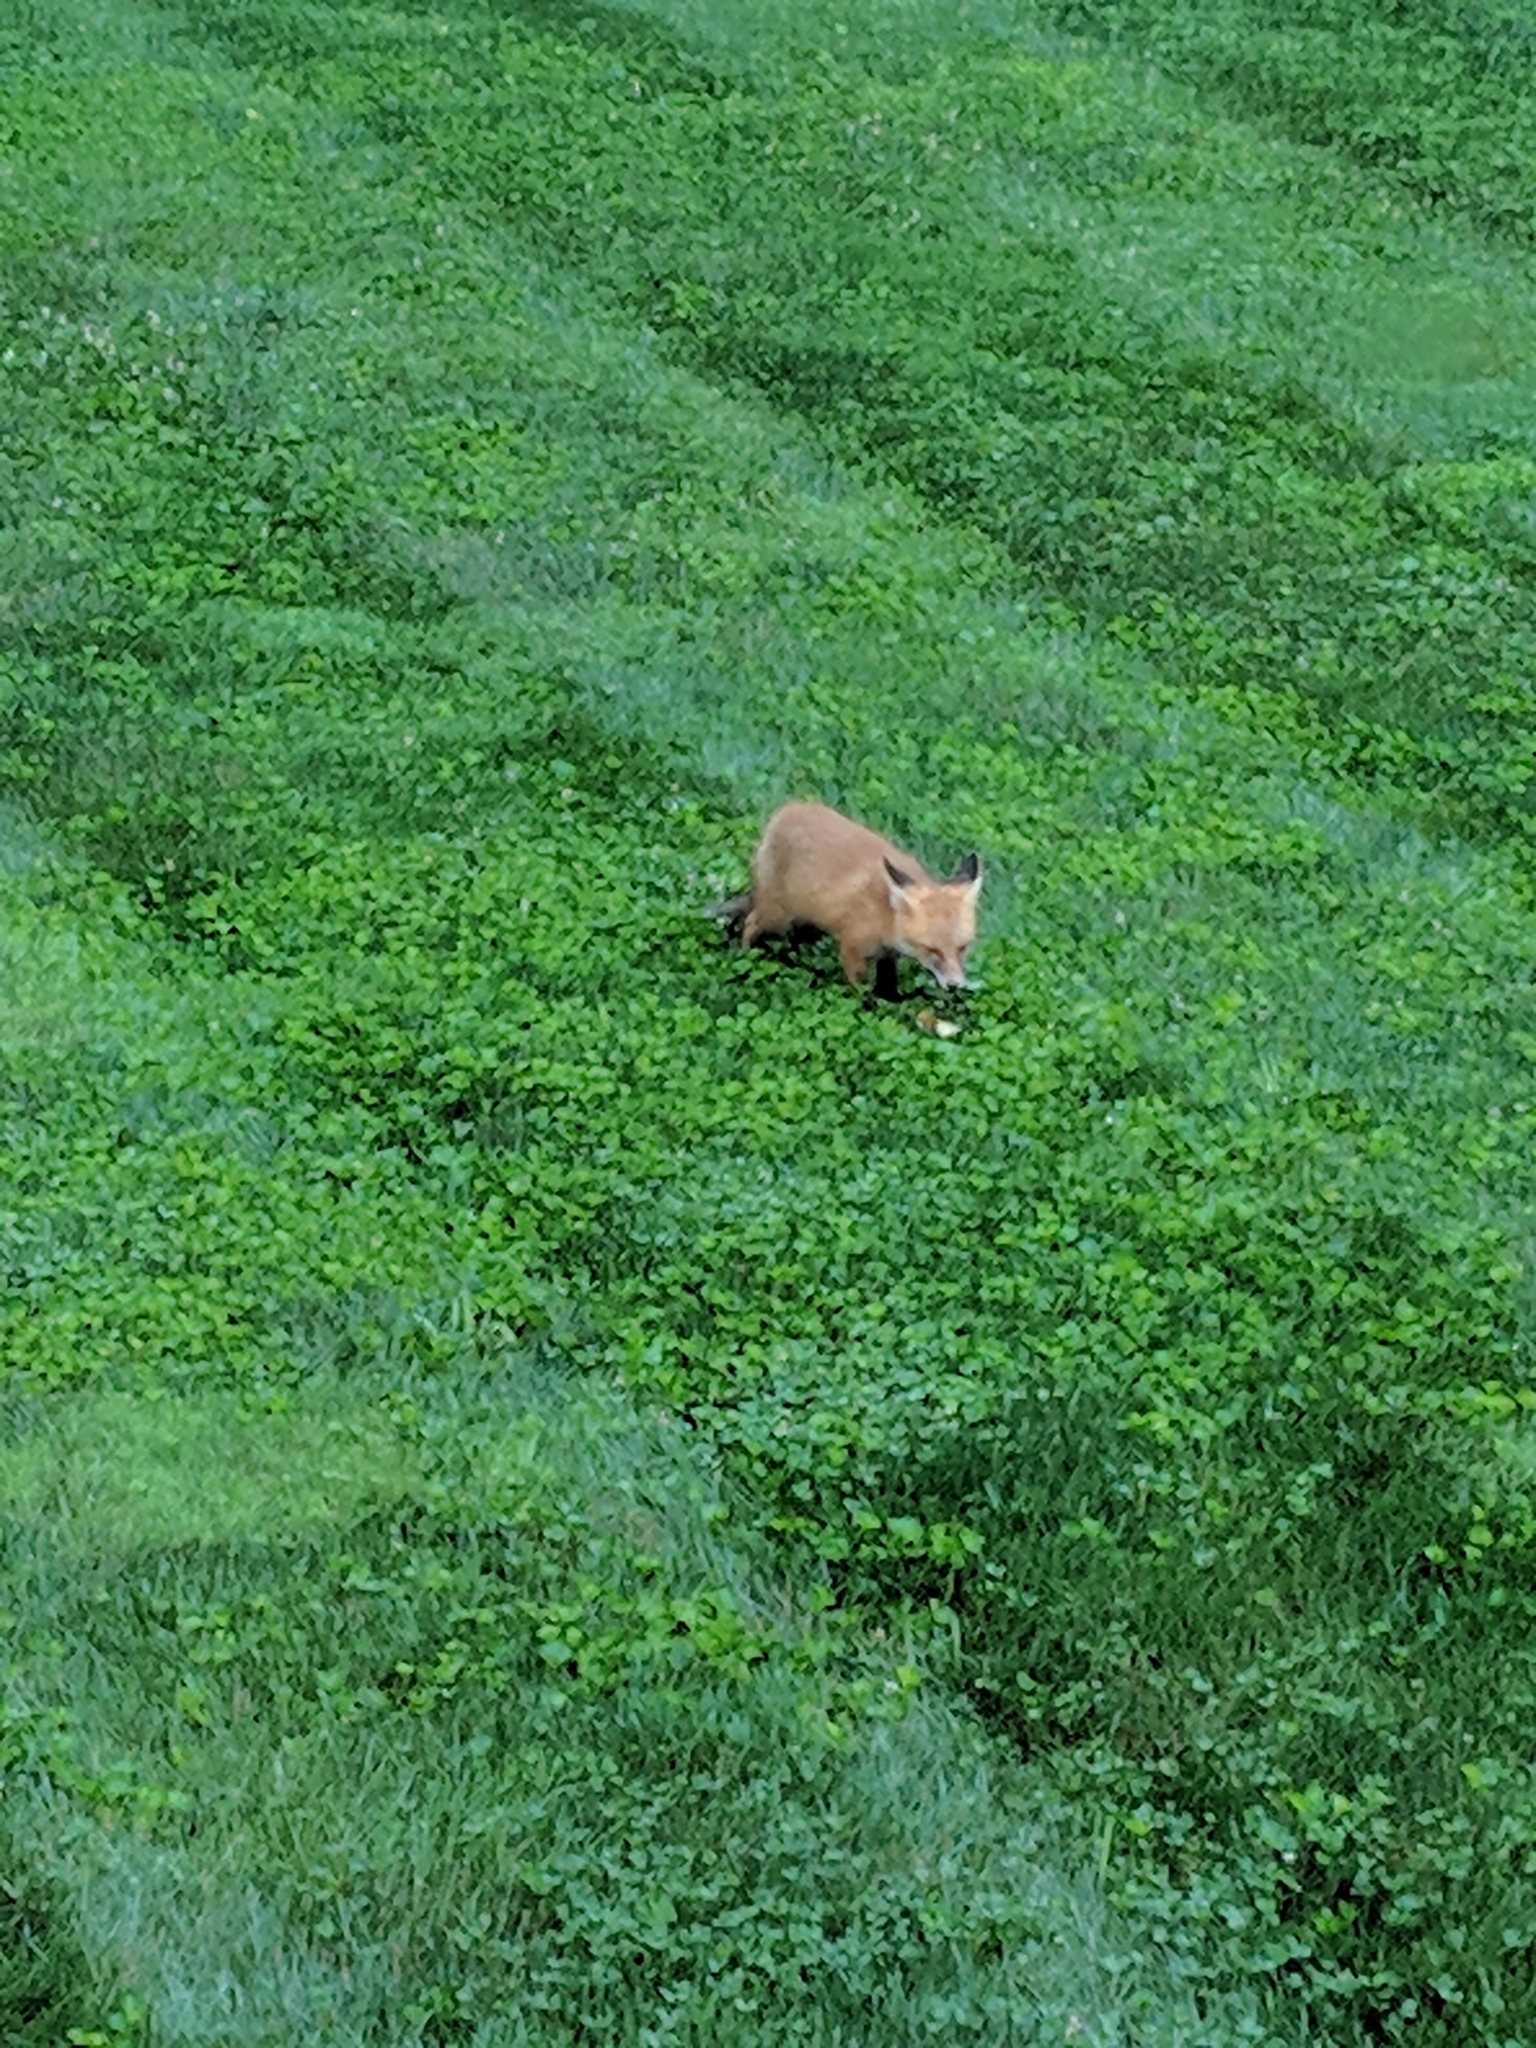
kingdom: Animalia
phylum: Chordata
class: Mammalia
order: Carnivora
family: Canidae
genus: Vulpes
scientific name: Vulpes vulpes
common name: Red fox
